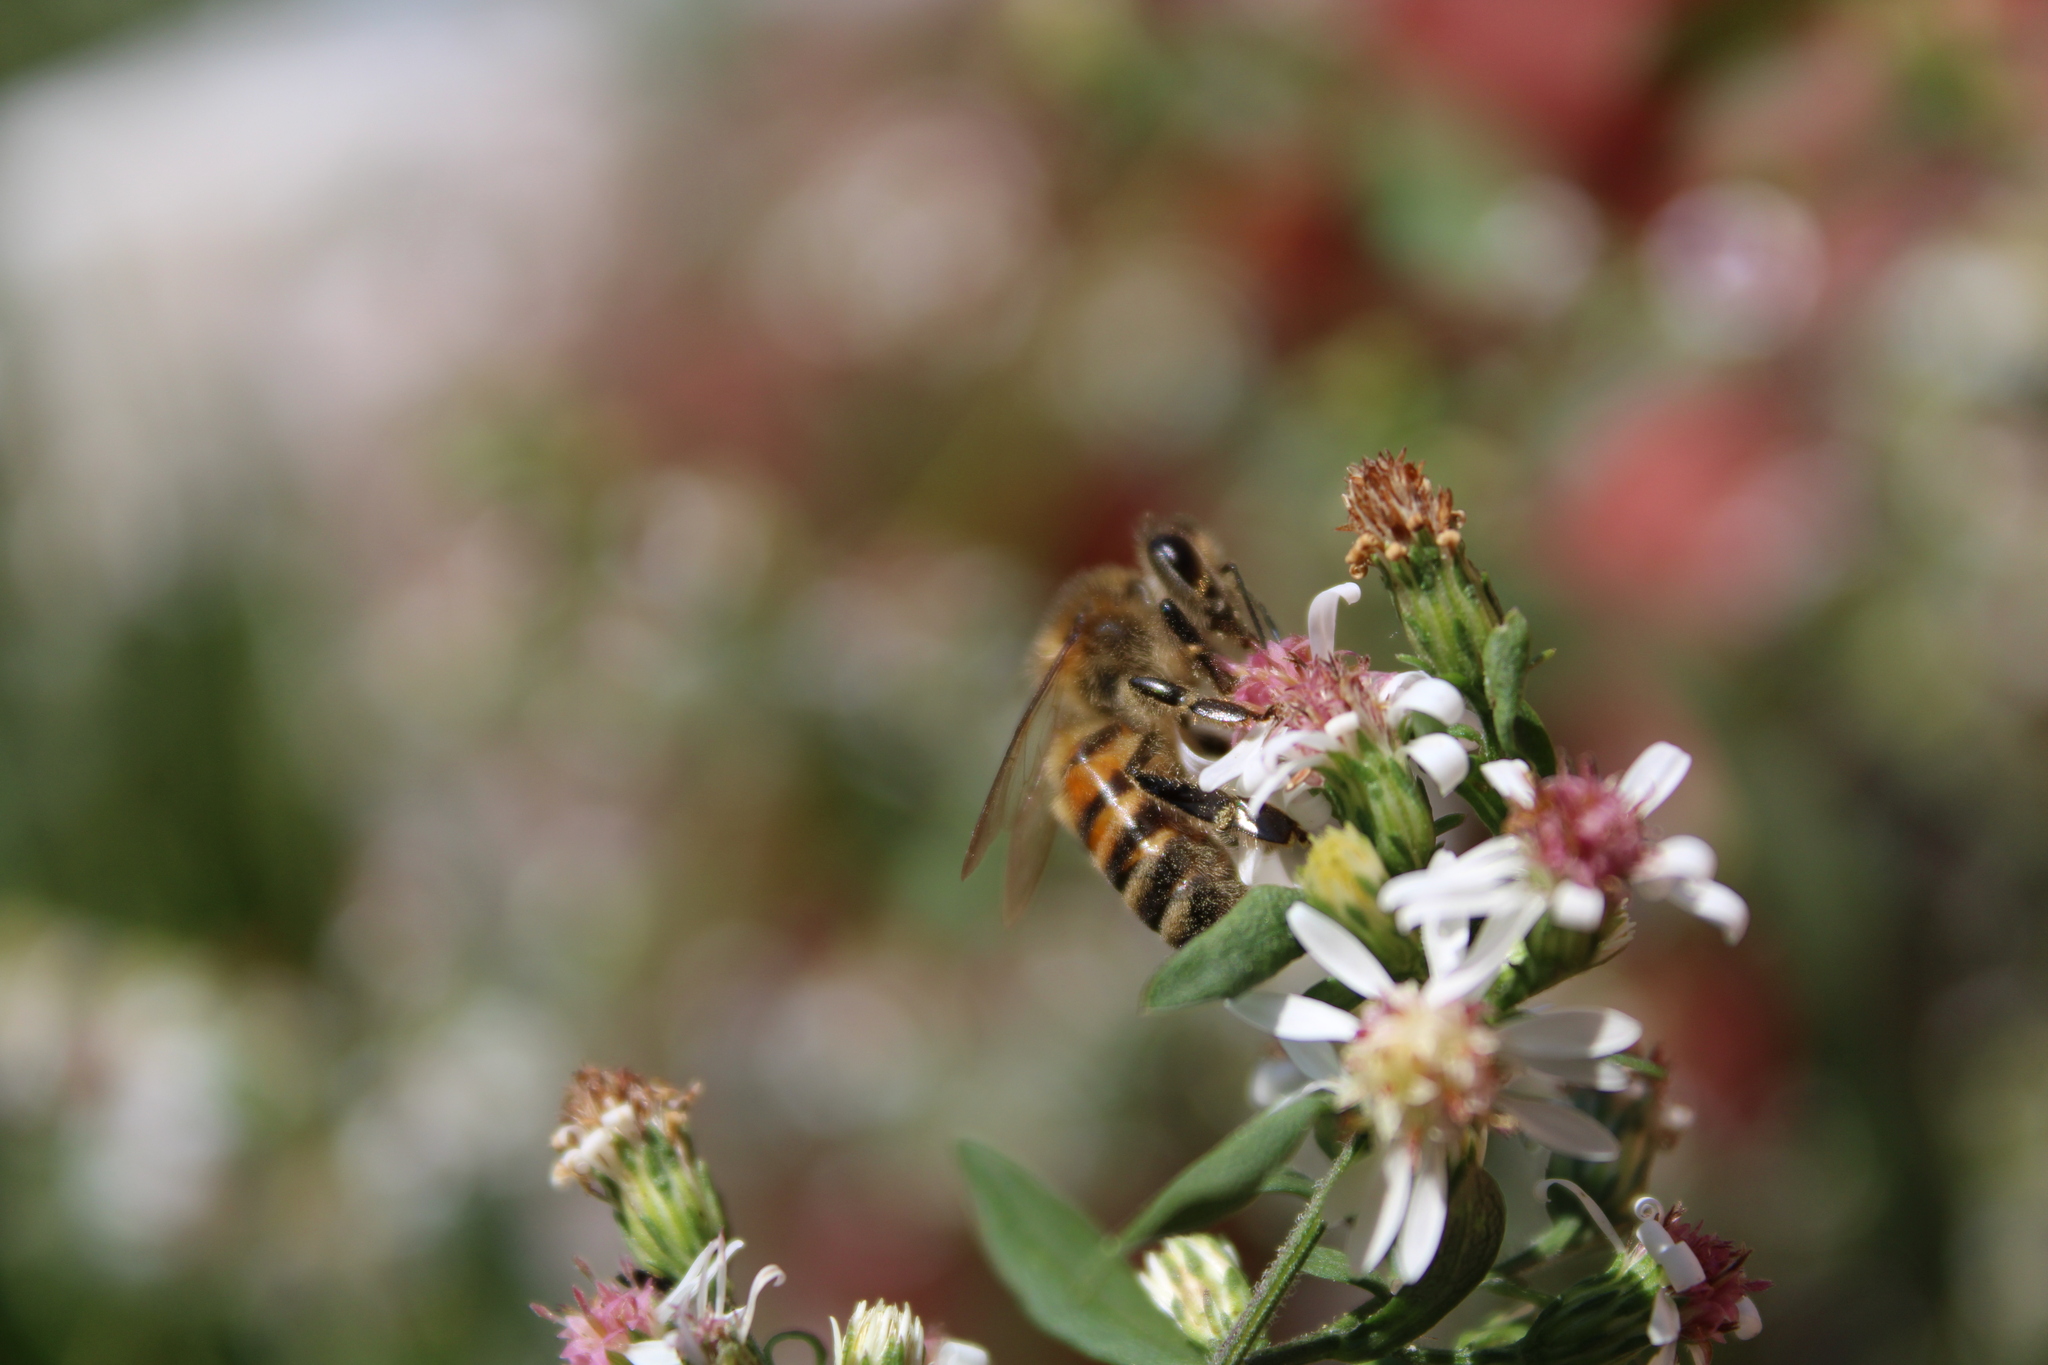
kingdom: Animalia
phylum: Arthropoda
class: Insecta
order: Hymenoptera
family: Apidae
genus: Apis
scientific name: Apis mellifera
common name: Honey bee
